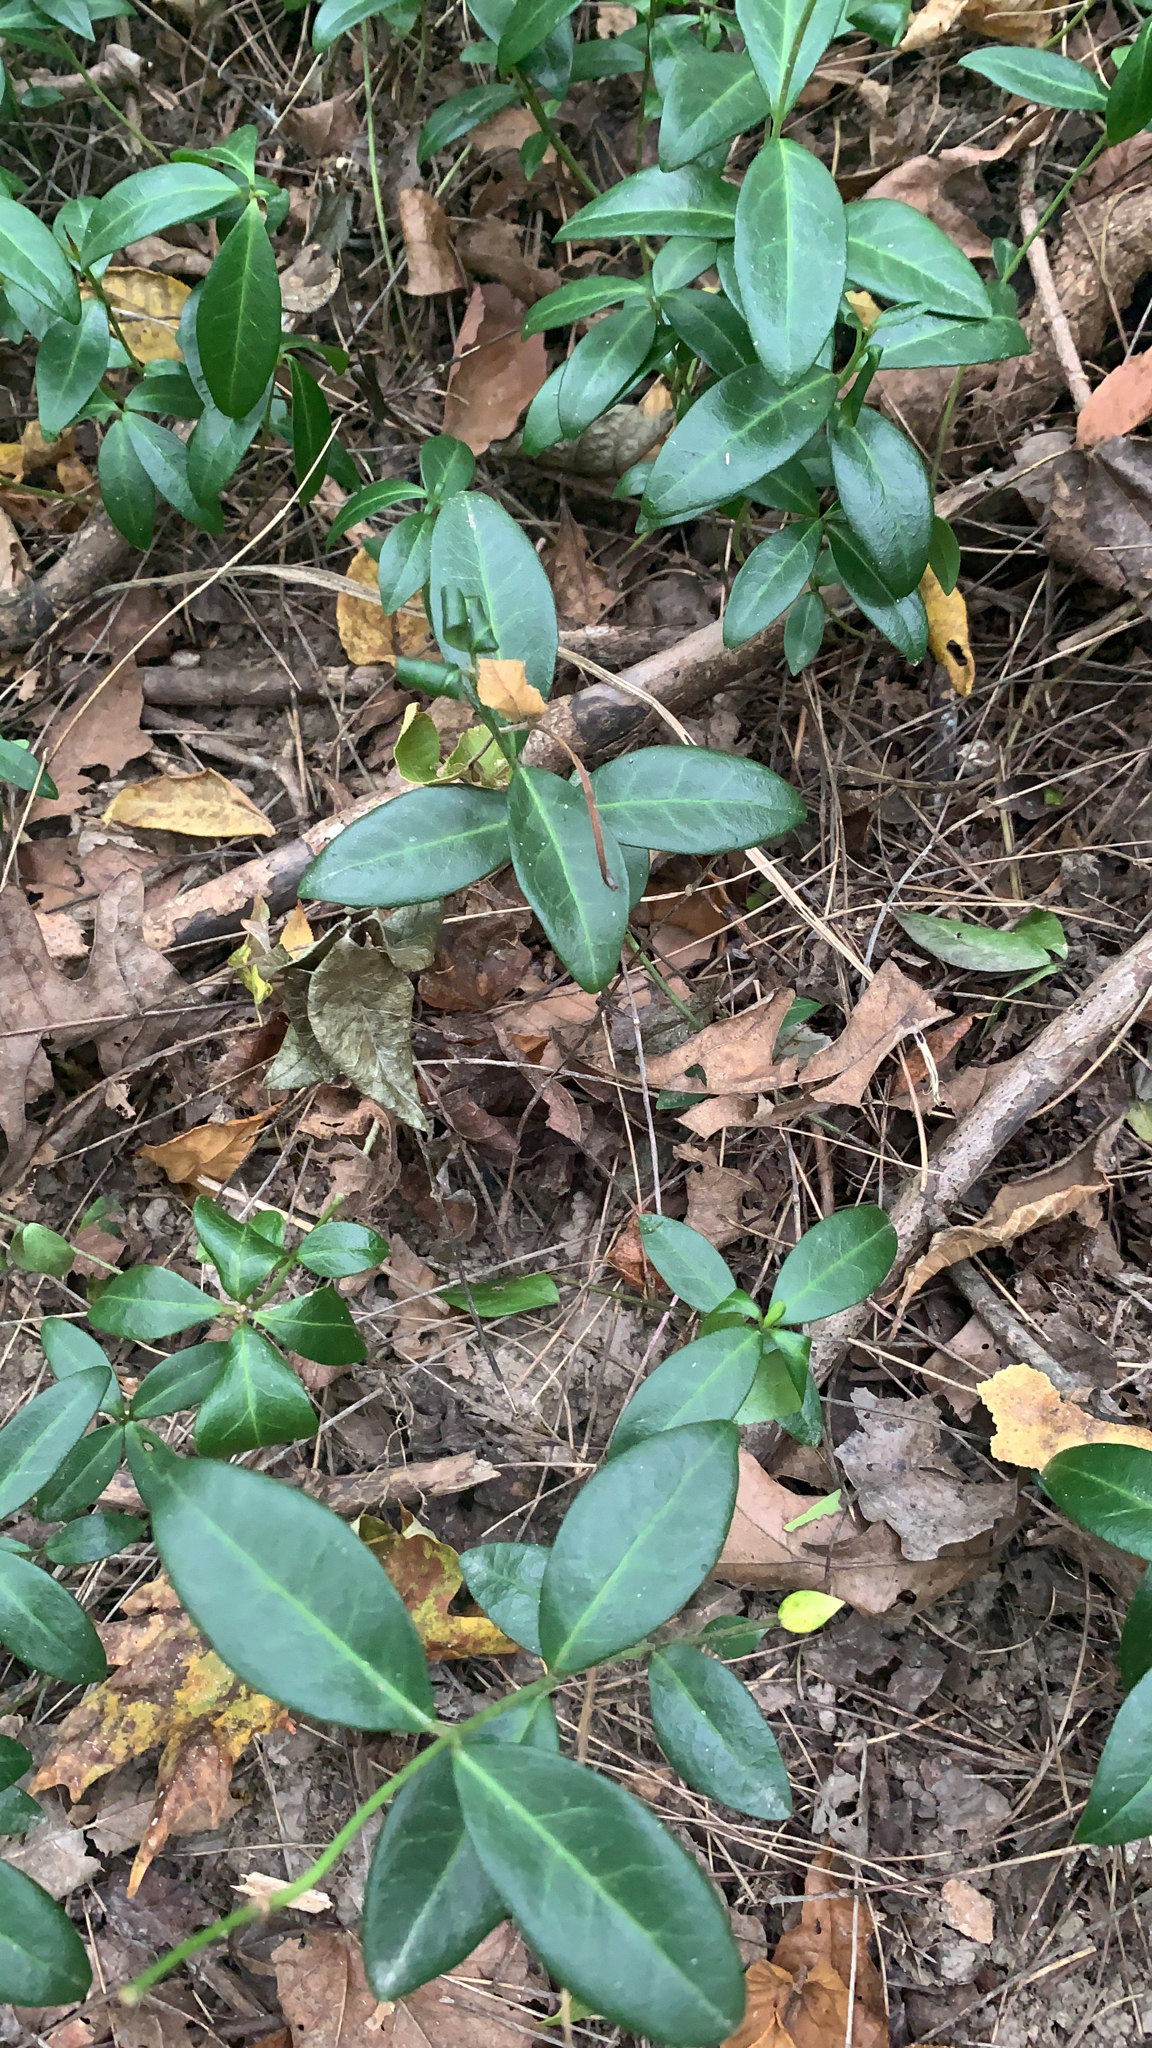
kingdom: Plantae
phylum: Tracheophyta
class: Magnoliopsida
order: Gentianales
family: Apocynaceae
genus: Vinca
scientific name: Vinca minor
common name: Lesser periwinkle
